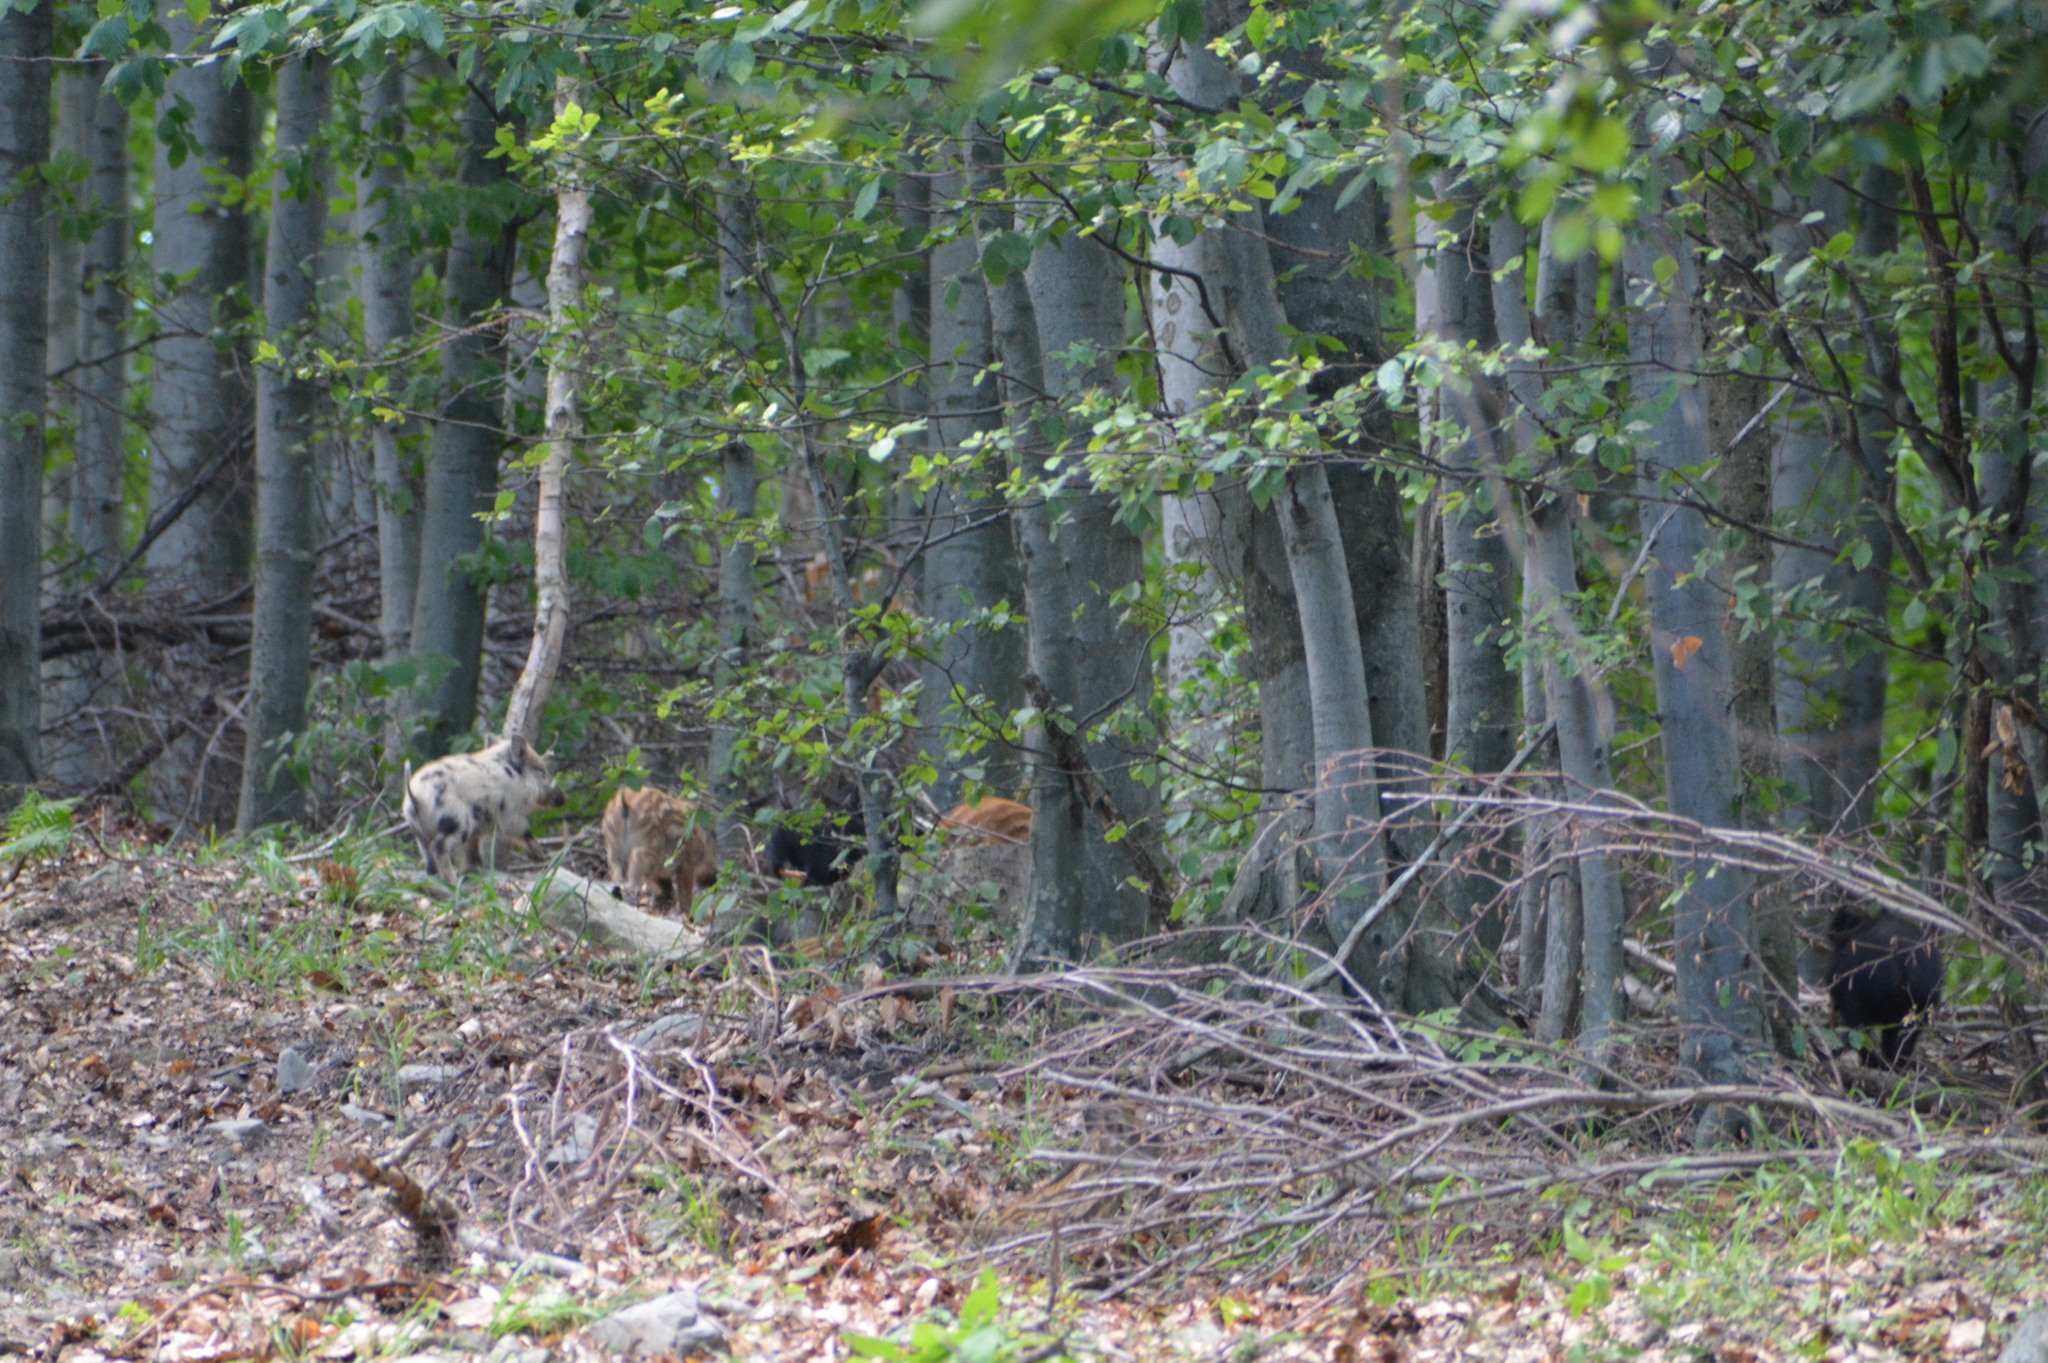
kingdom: Animalia
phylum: Chordata
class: Mammalia
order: Artiodactyla
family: Suidae
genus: Sus
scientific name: Sus scrofa
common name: Wild boar
